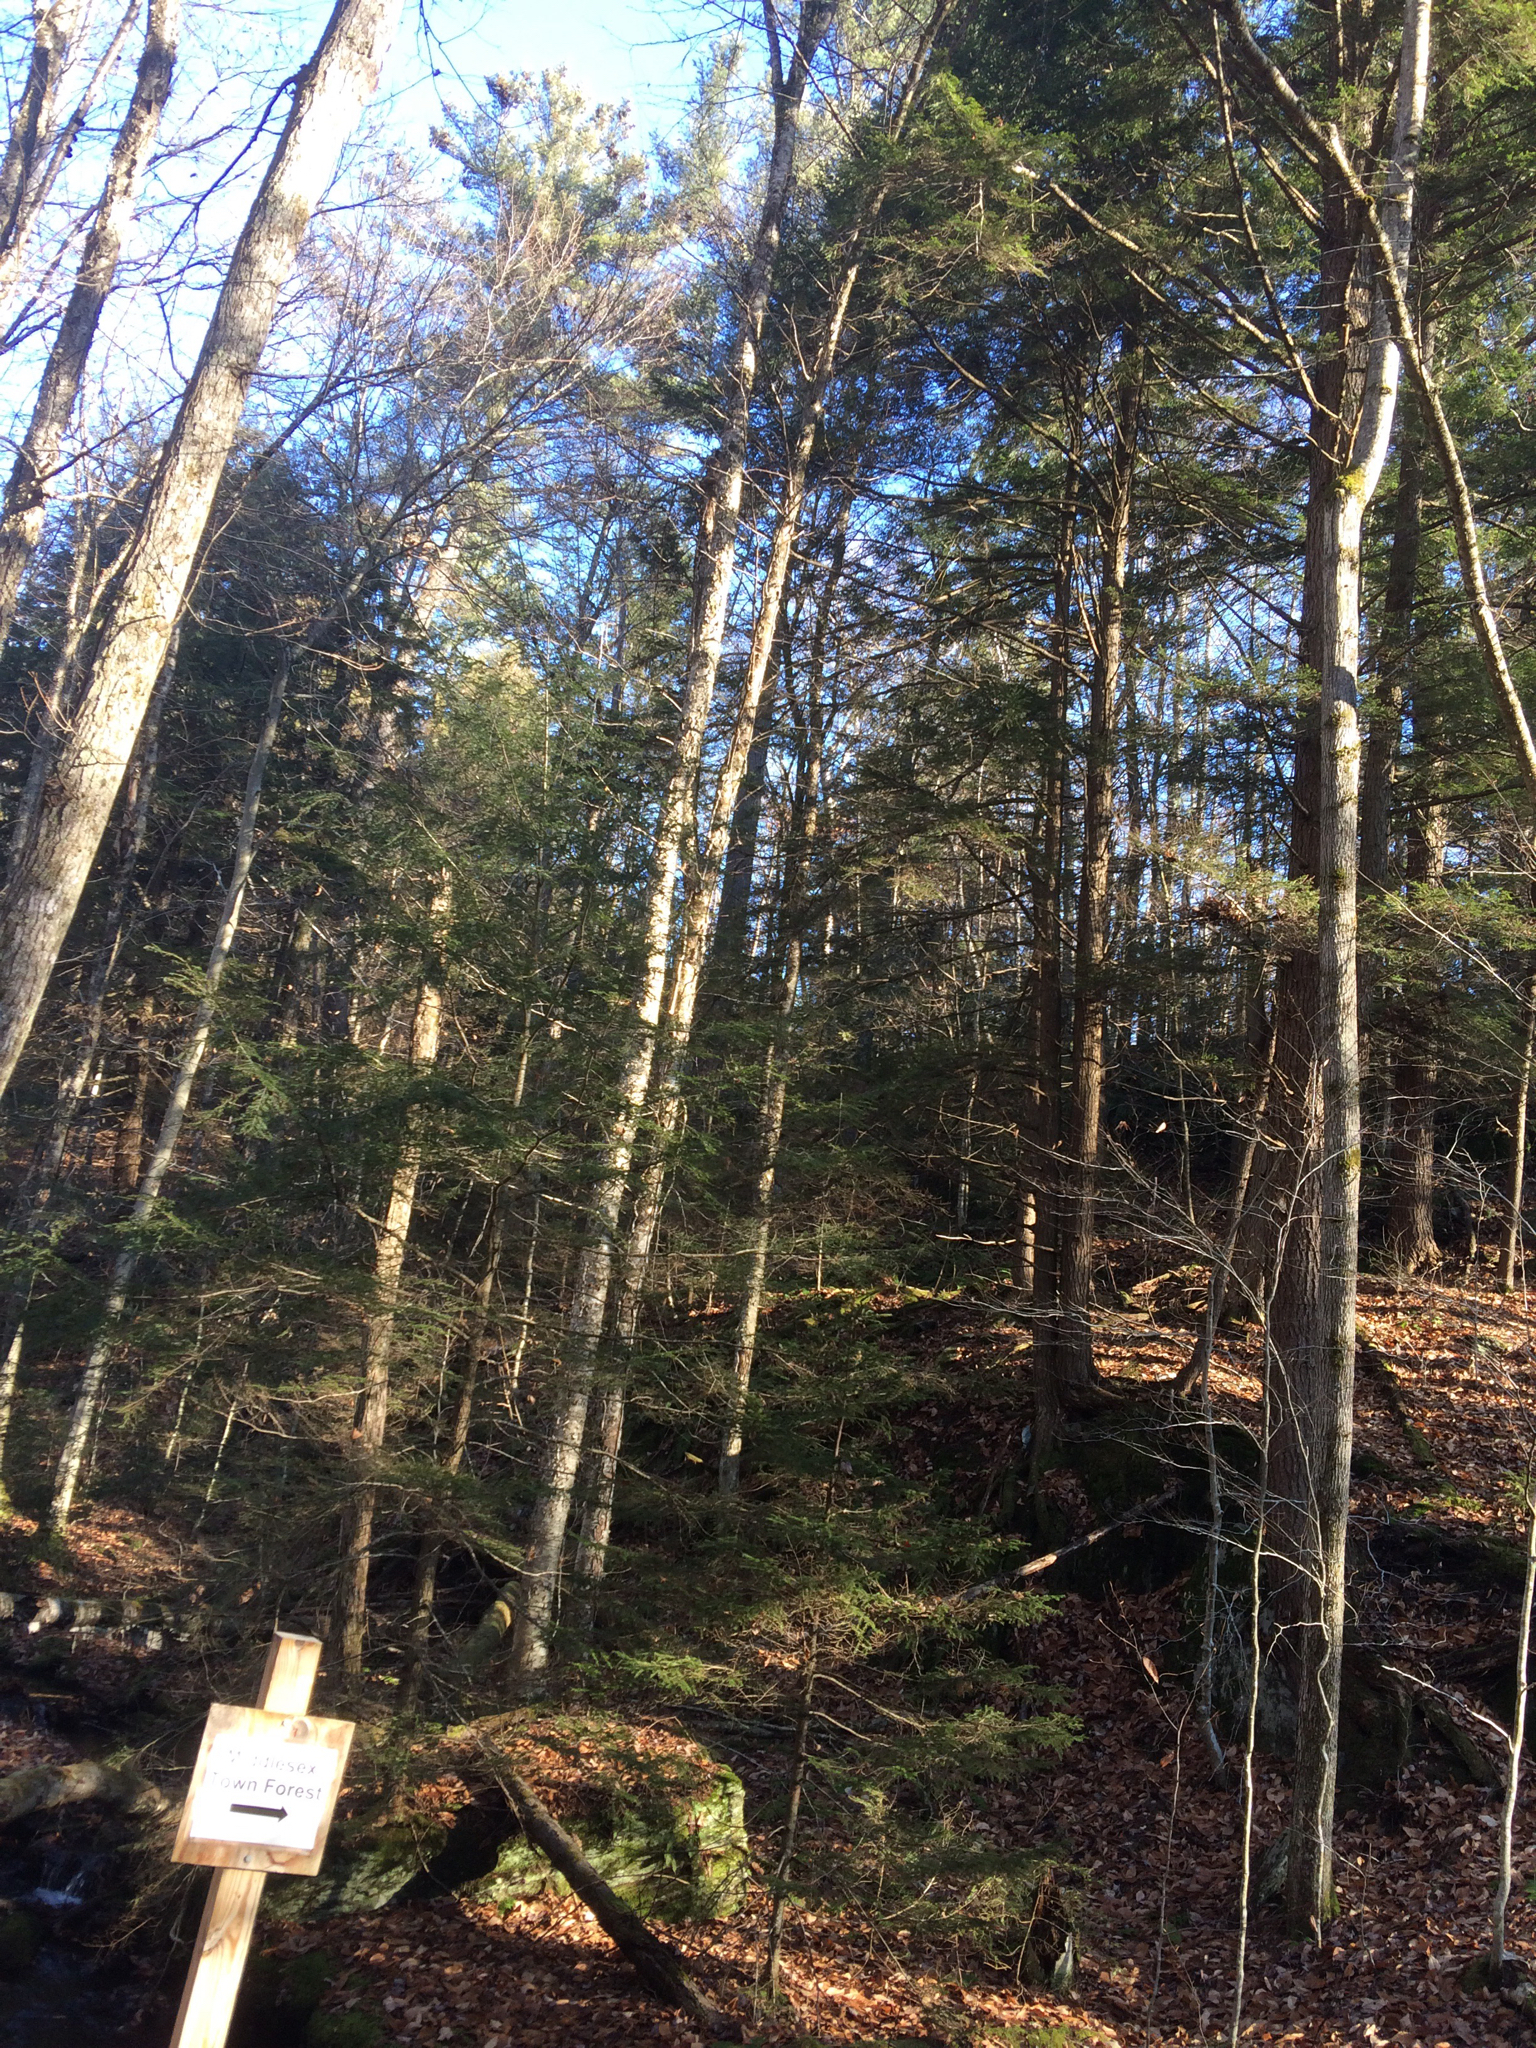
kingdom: Plantae
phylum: Tracheophyta
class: Pinopsida
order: Pinales
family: Pinaceae
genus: Tsuga
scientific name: Tsuga canadensis
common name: Eastern hemlock
